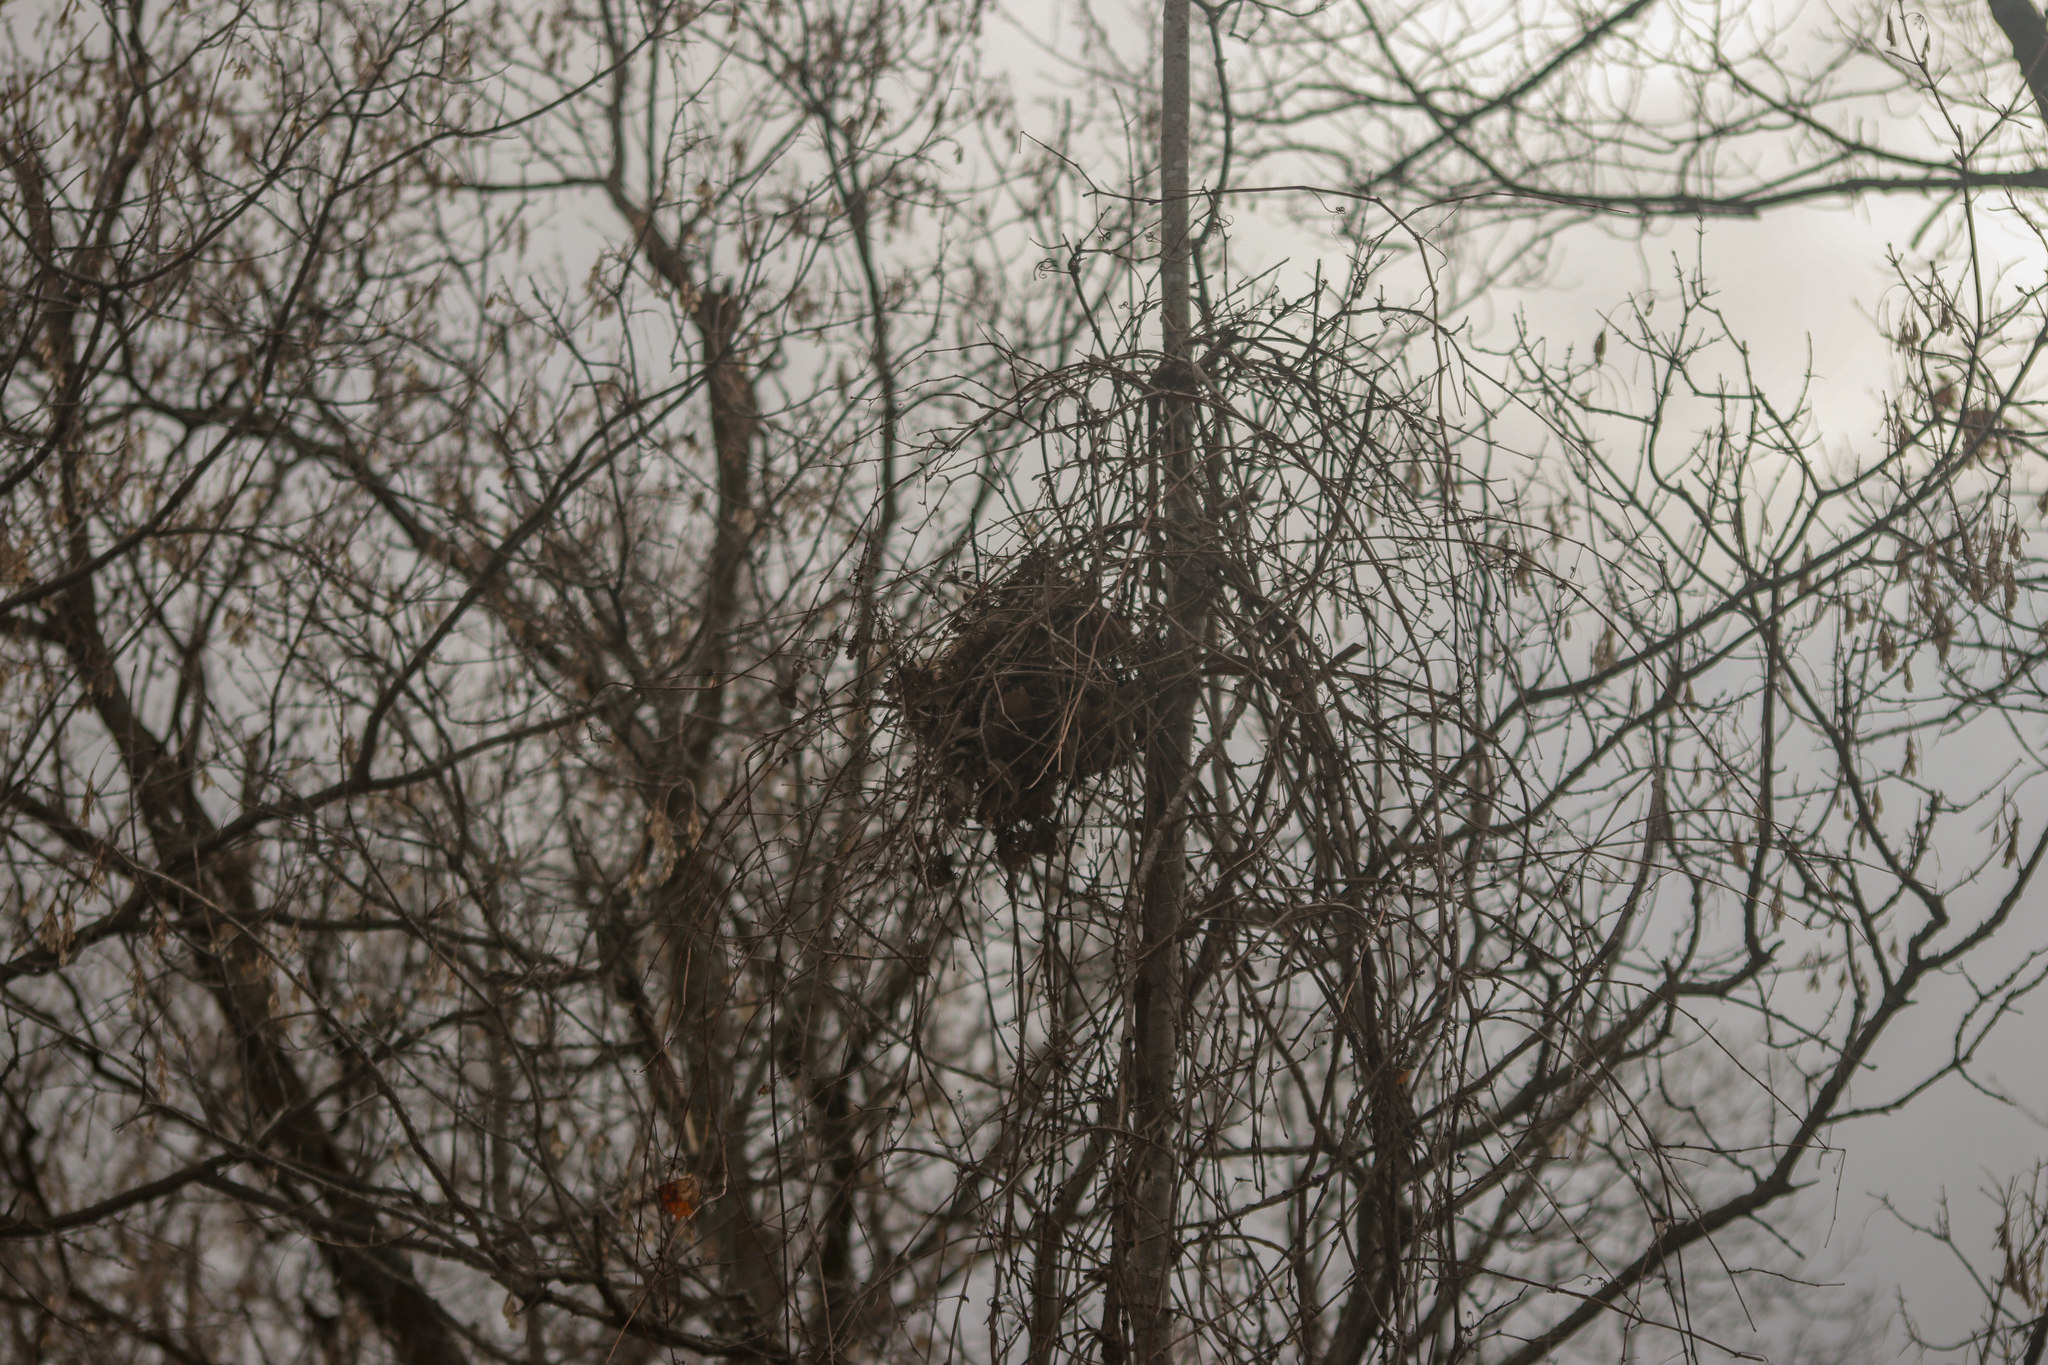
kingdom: Animalia
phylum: Chordata
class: Mammalia
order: Rodentia
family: Sciuridae
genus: Sciurus
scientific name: Sciurus carolinensis
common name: Eastern gray squirrel
